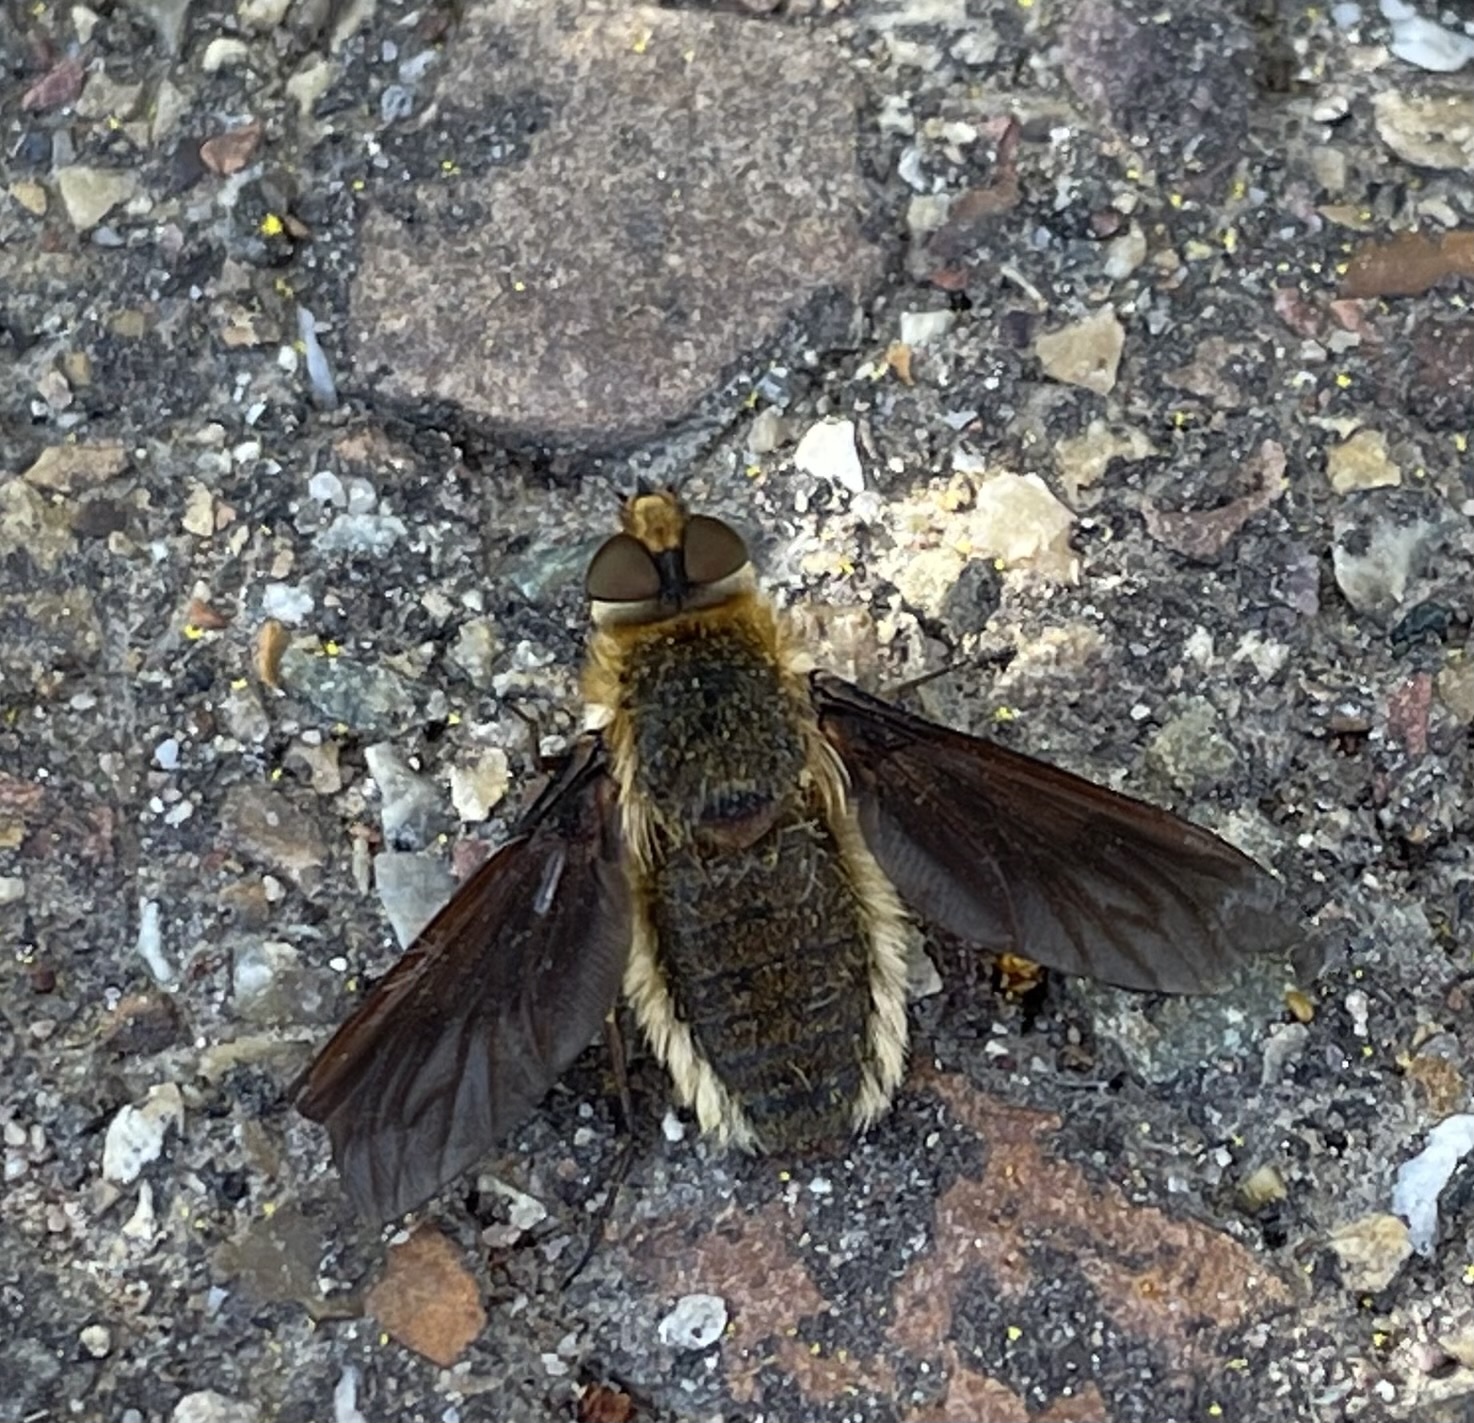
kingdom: Animalia
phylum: Arthropoda
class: Insecta
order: Diptera
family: Bombyliidae
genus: Poecilanthrax
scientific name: Poecilanthrax tegminipennis
